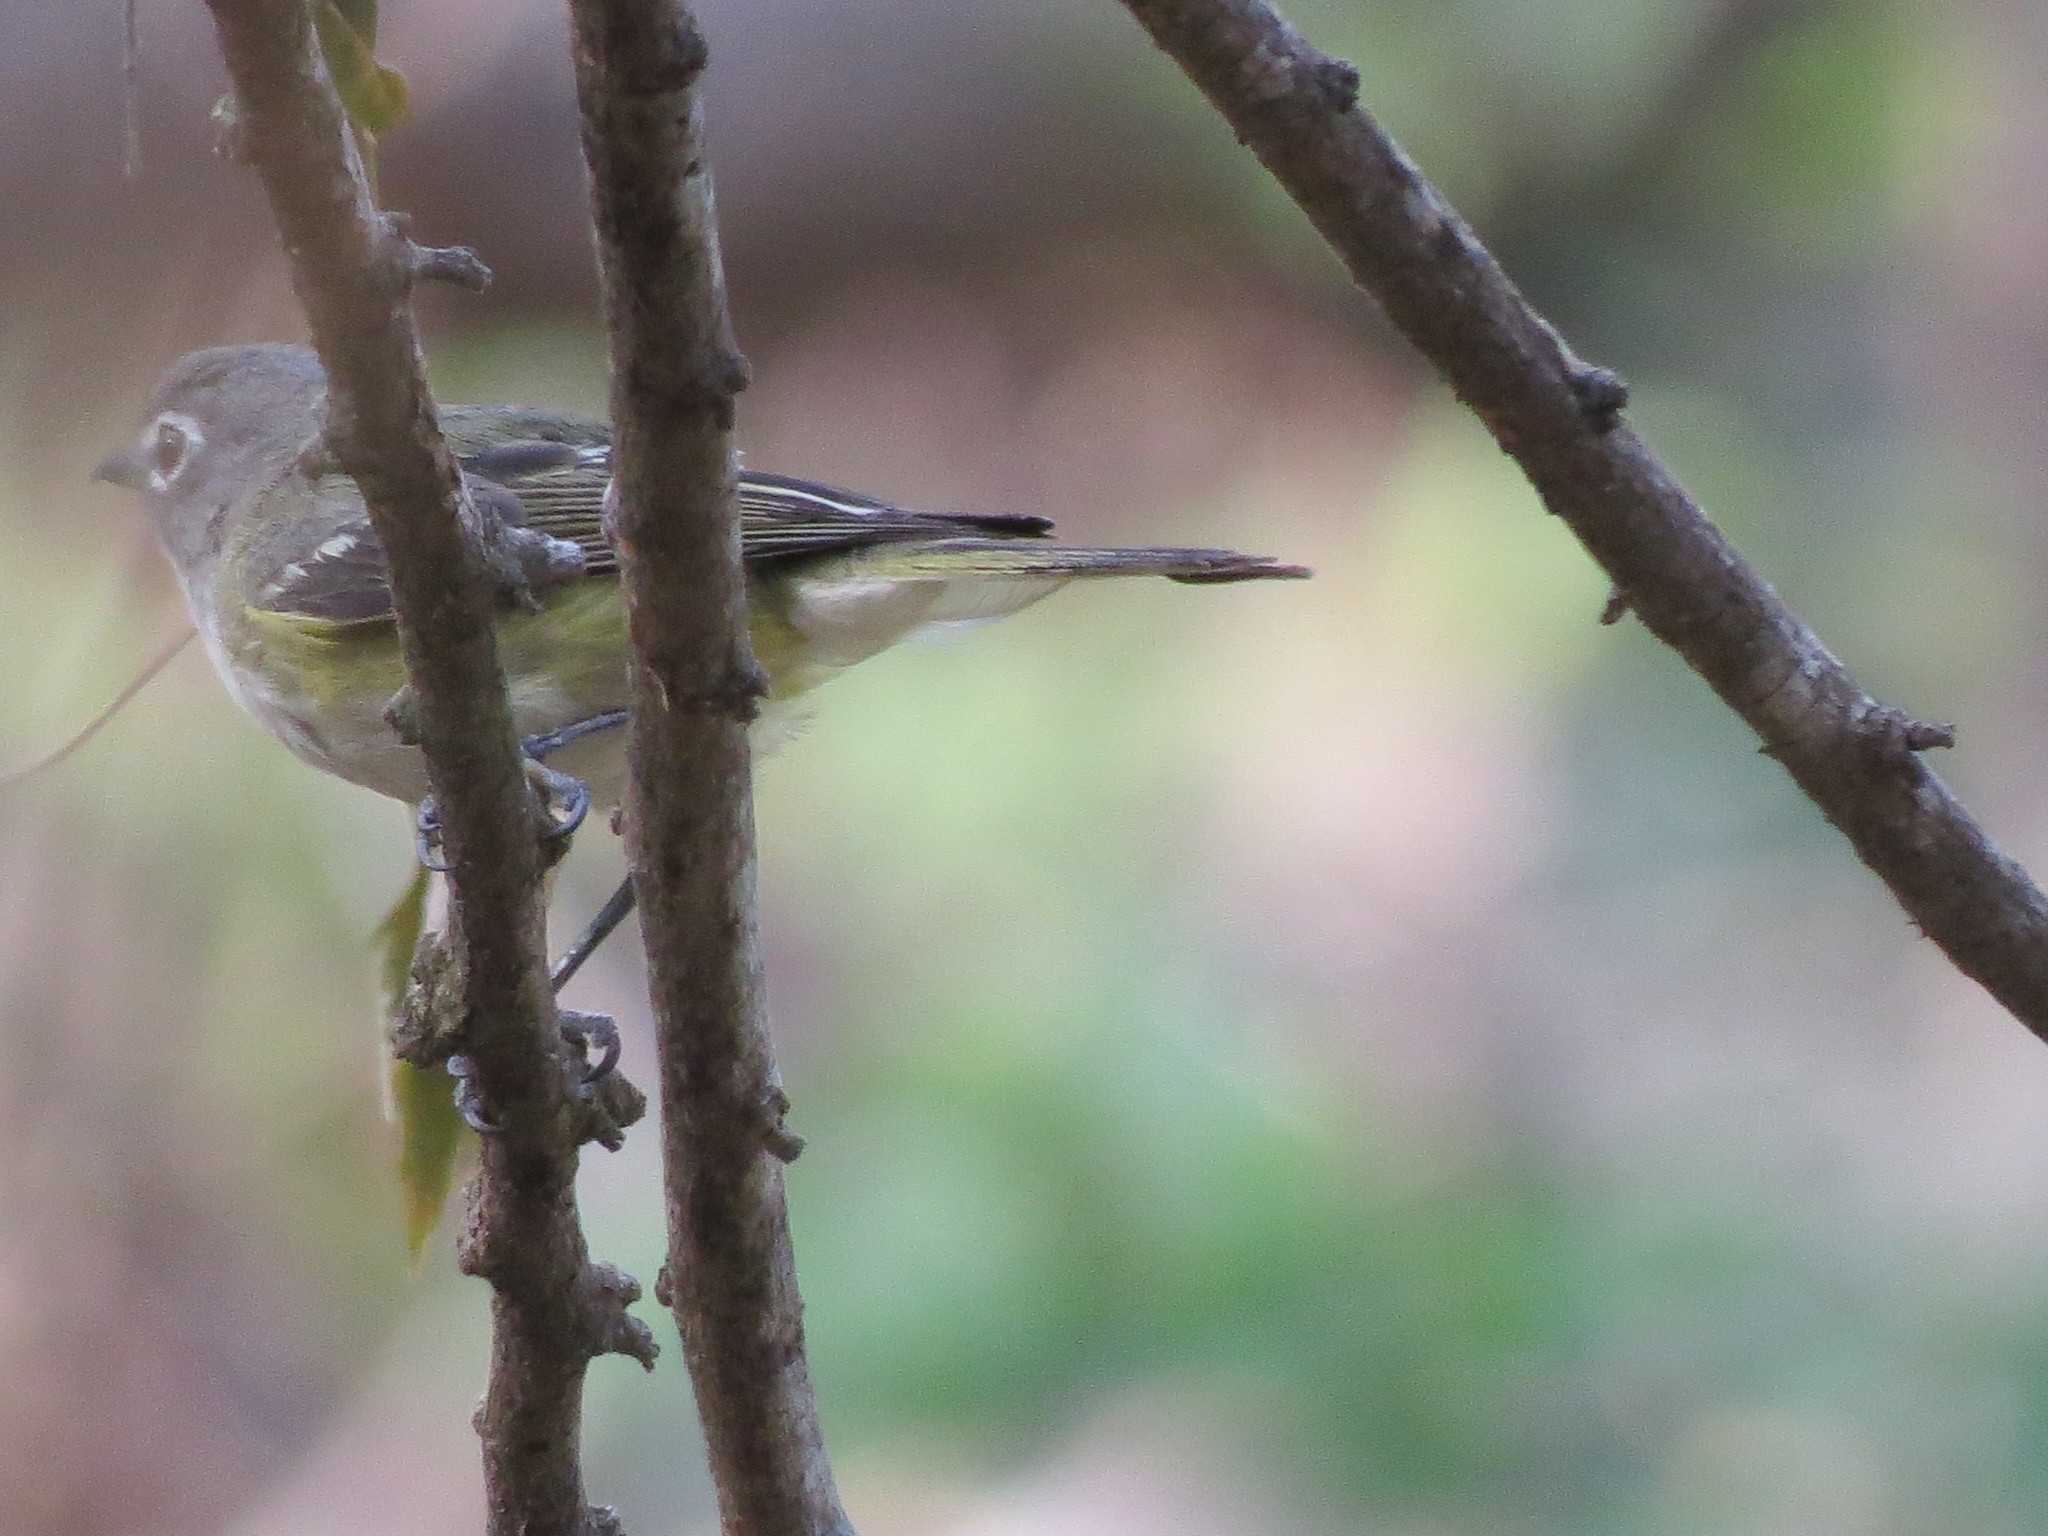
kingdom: Animalia
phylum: Chordata
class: Aves
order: Passeriformes
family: Vireonidae
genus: Vireo
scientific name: Vireo solitarius
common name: Blue-headed vireo
